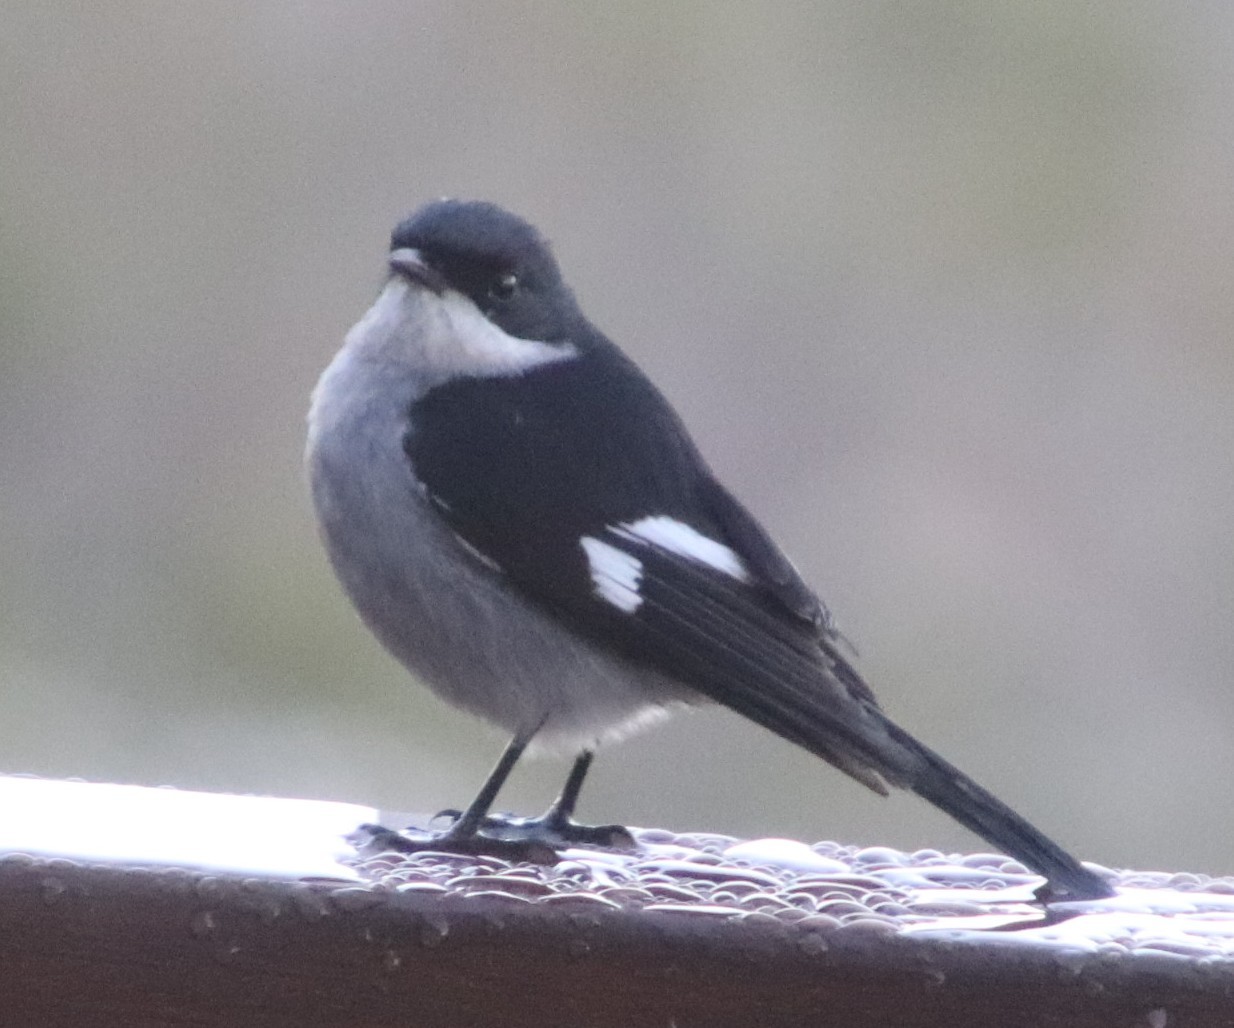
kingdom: Animalia
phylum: Chordata
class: Aves
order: Passeriformes
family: Muscicapidae
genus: Sigelus
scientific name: Sigelus silens
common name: Fiscal flycatcher
